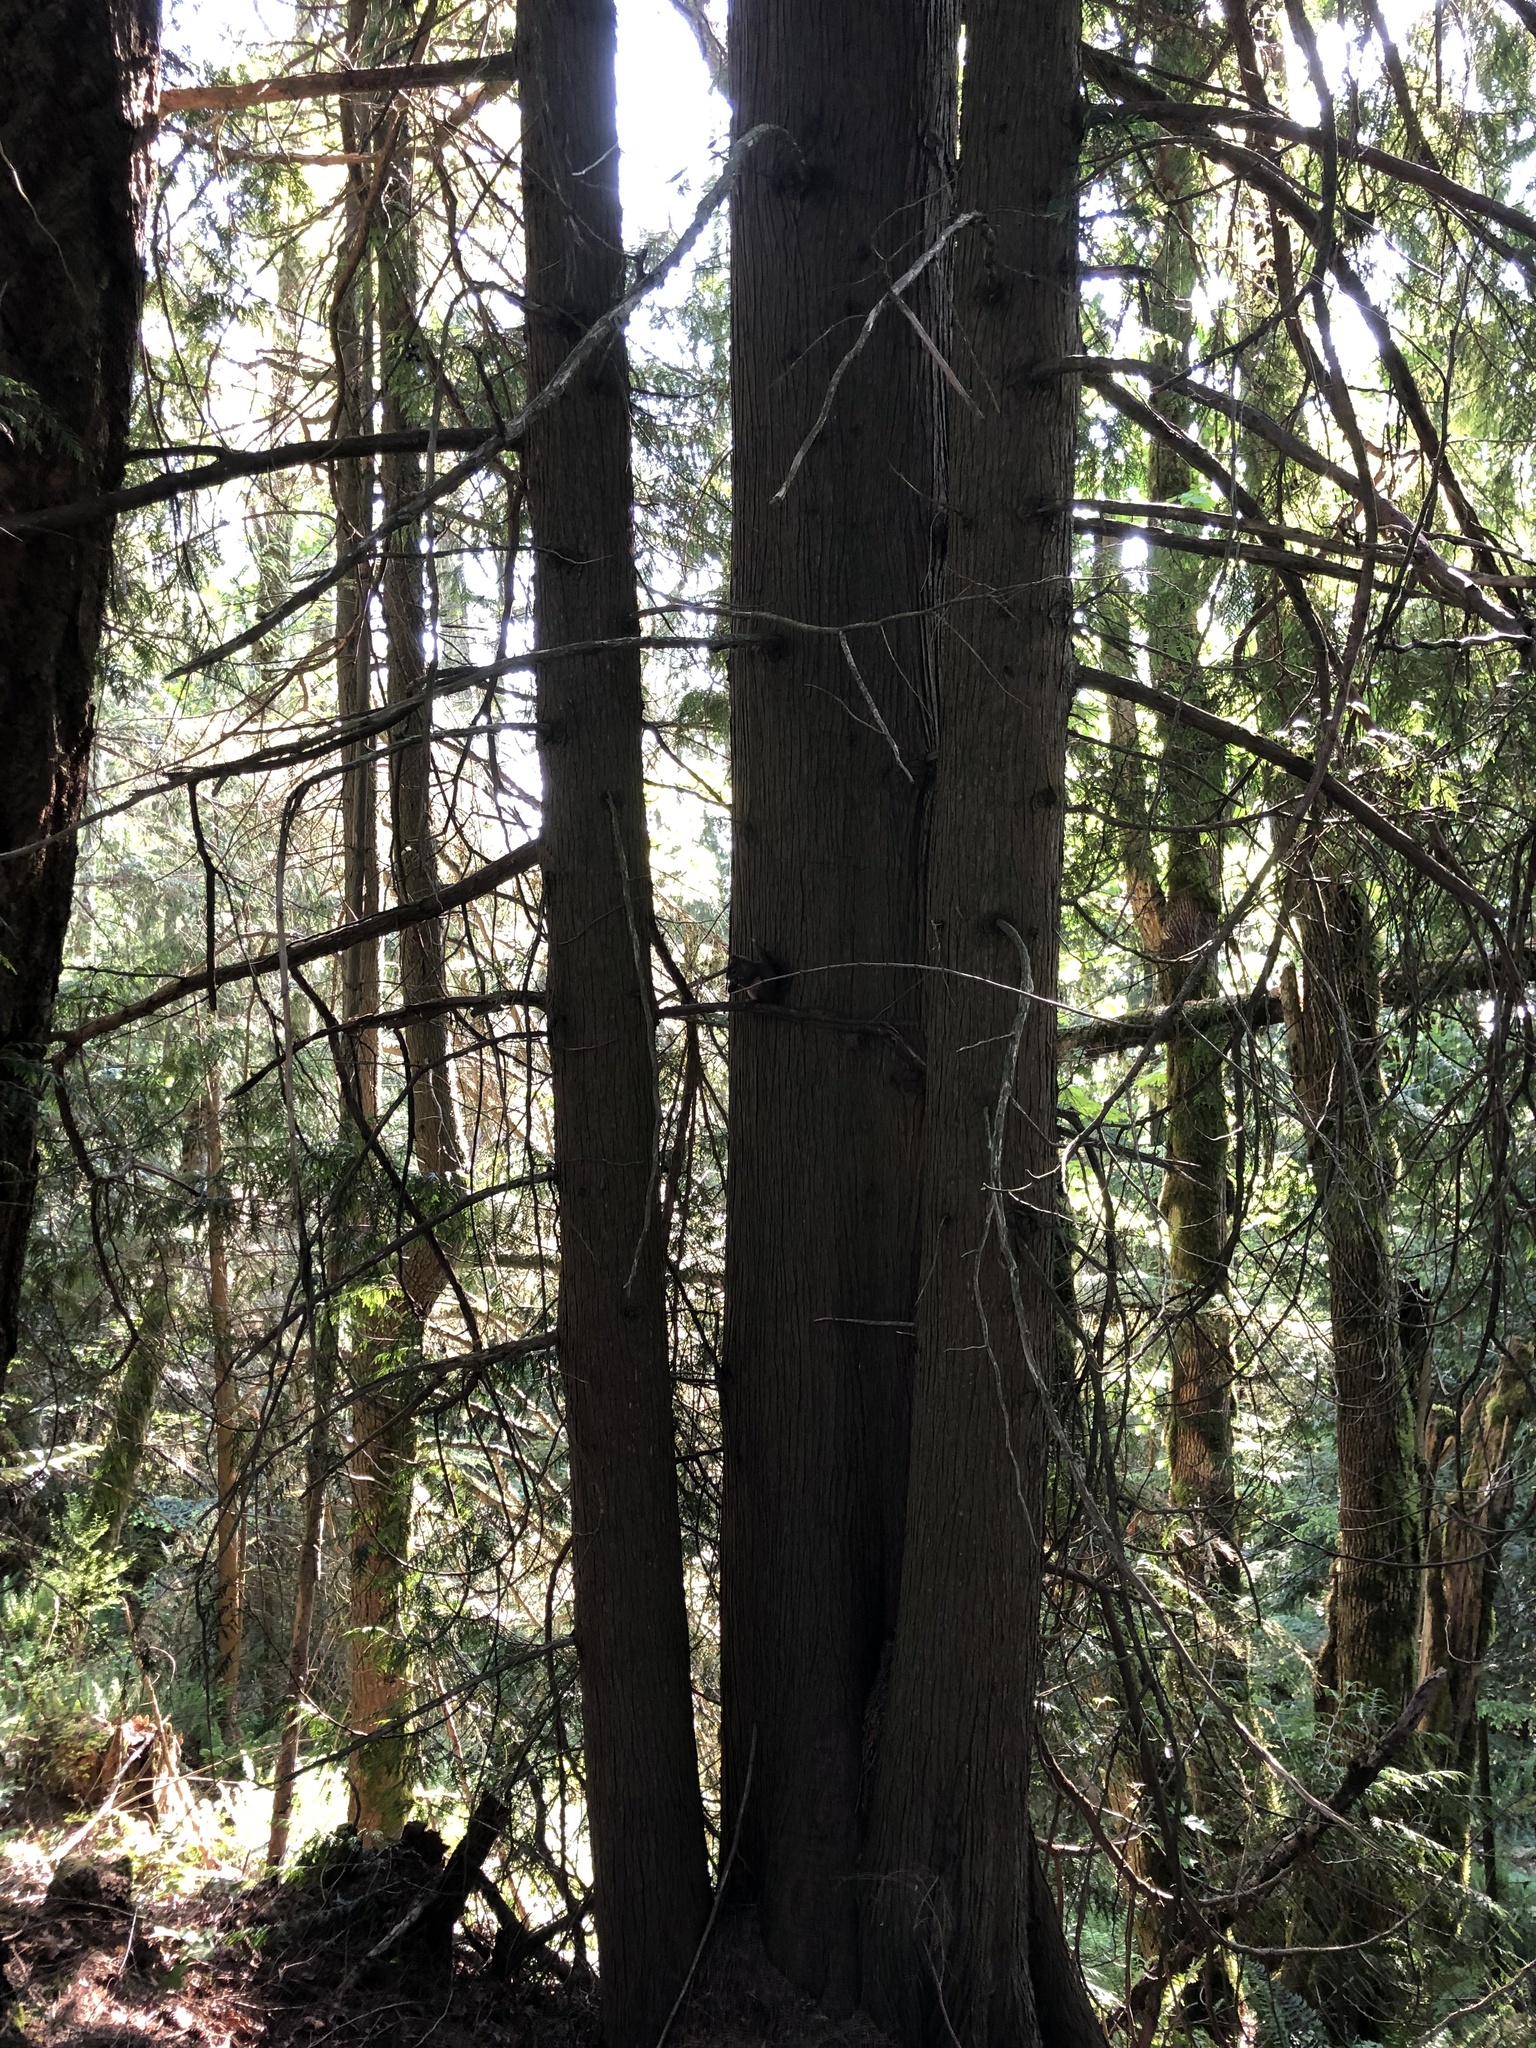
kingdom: Animalia
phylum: Chordata
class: Mammalia
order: Rodentia
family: Sciuridae
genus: Tamiasciurus
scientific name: Tamiasciurus douglasii
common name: Douglas's squirrel
